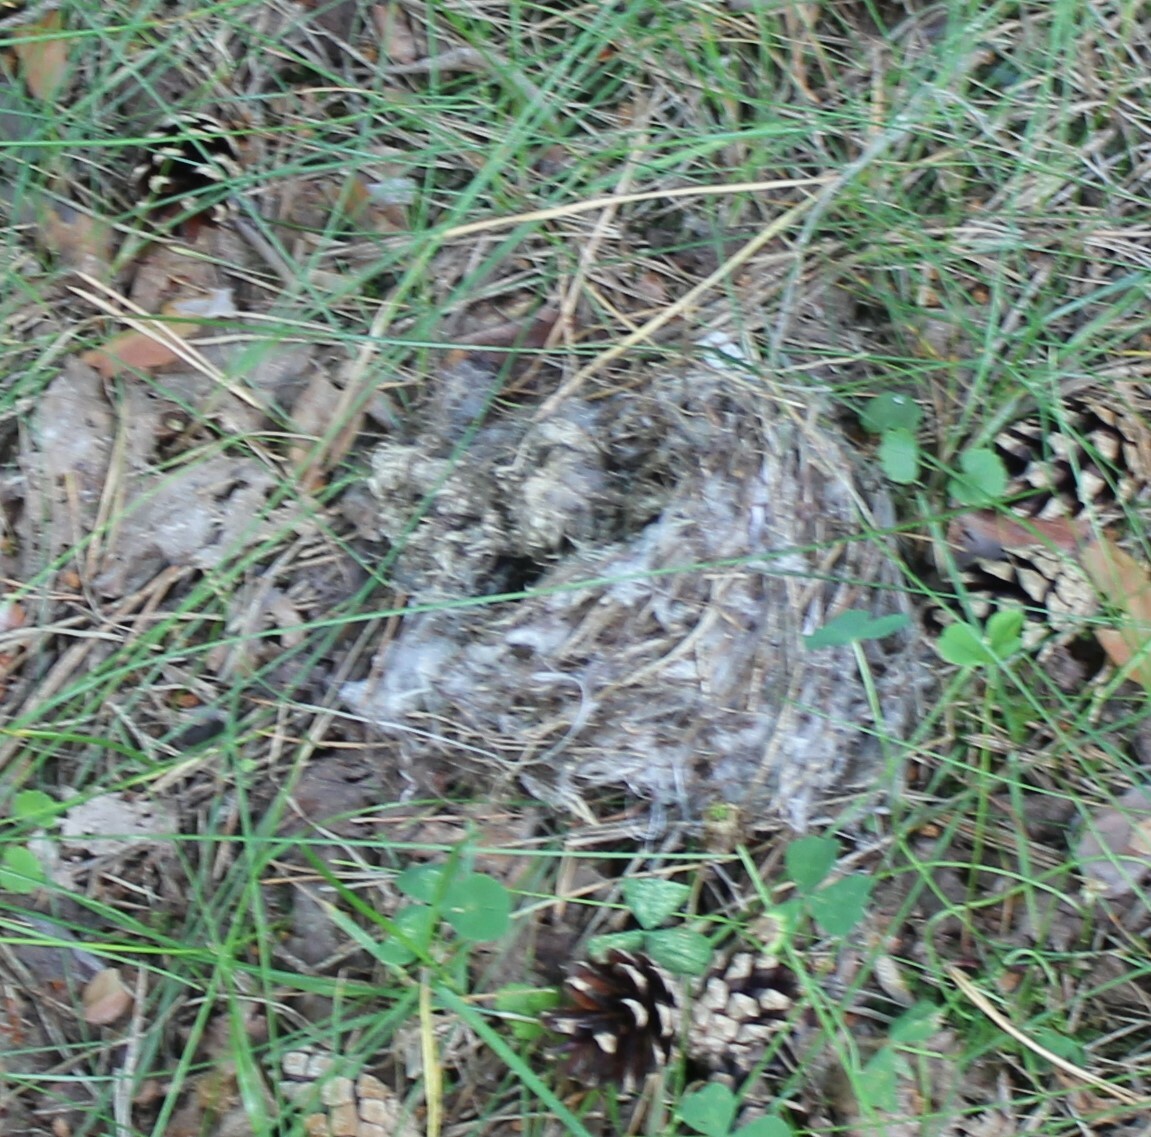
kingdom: Animalia
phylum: Chordata
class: Aves
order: Passeriformes
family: Turdidae
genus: Turdus
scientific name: Turdus merula
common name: Common blackbird
